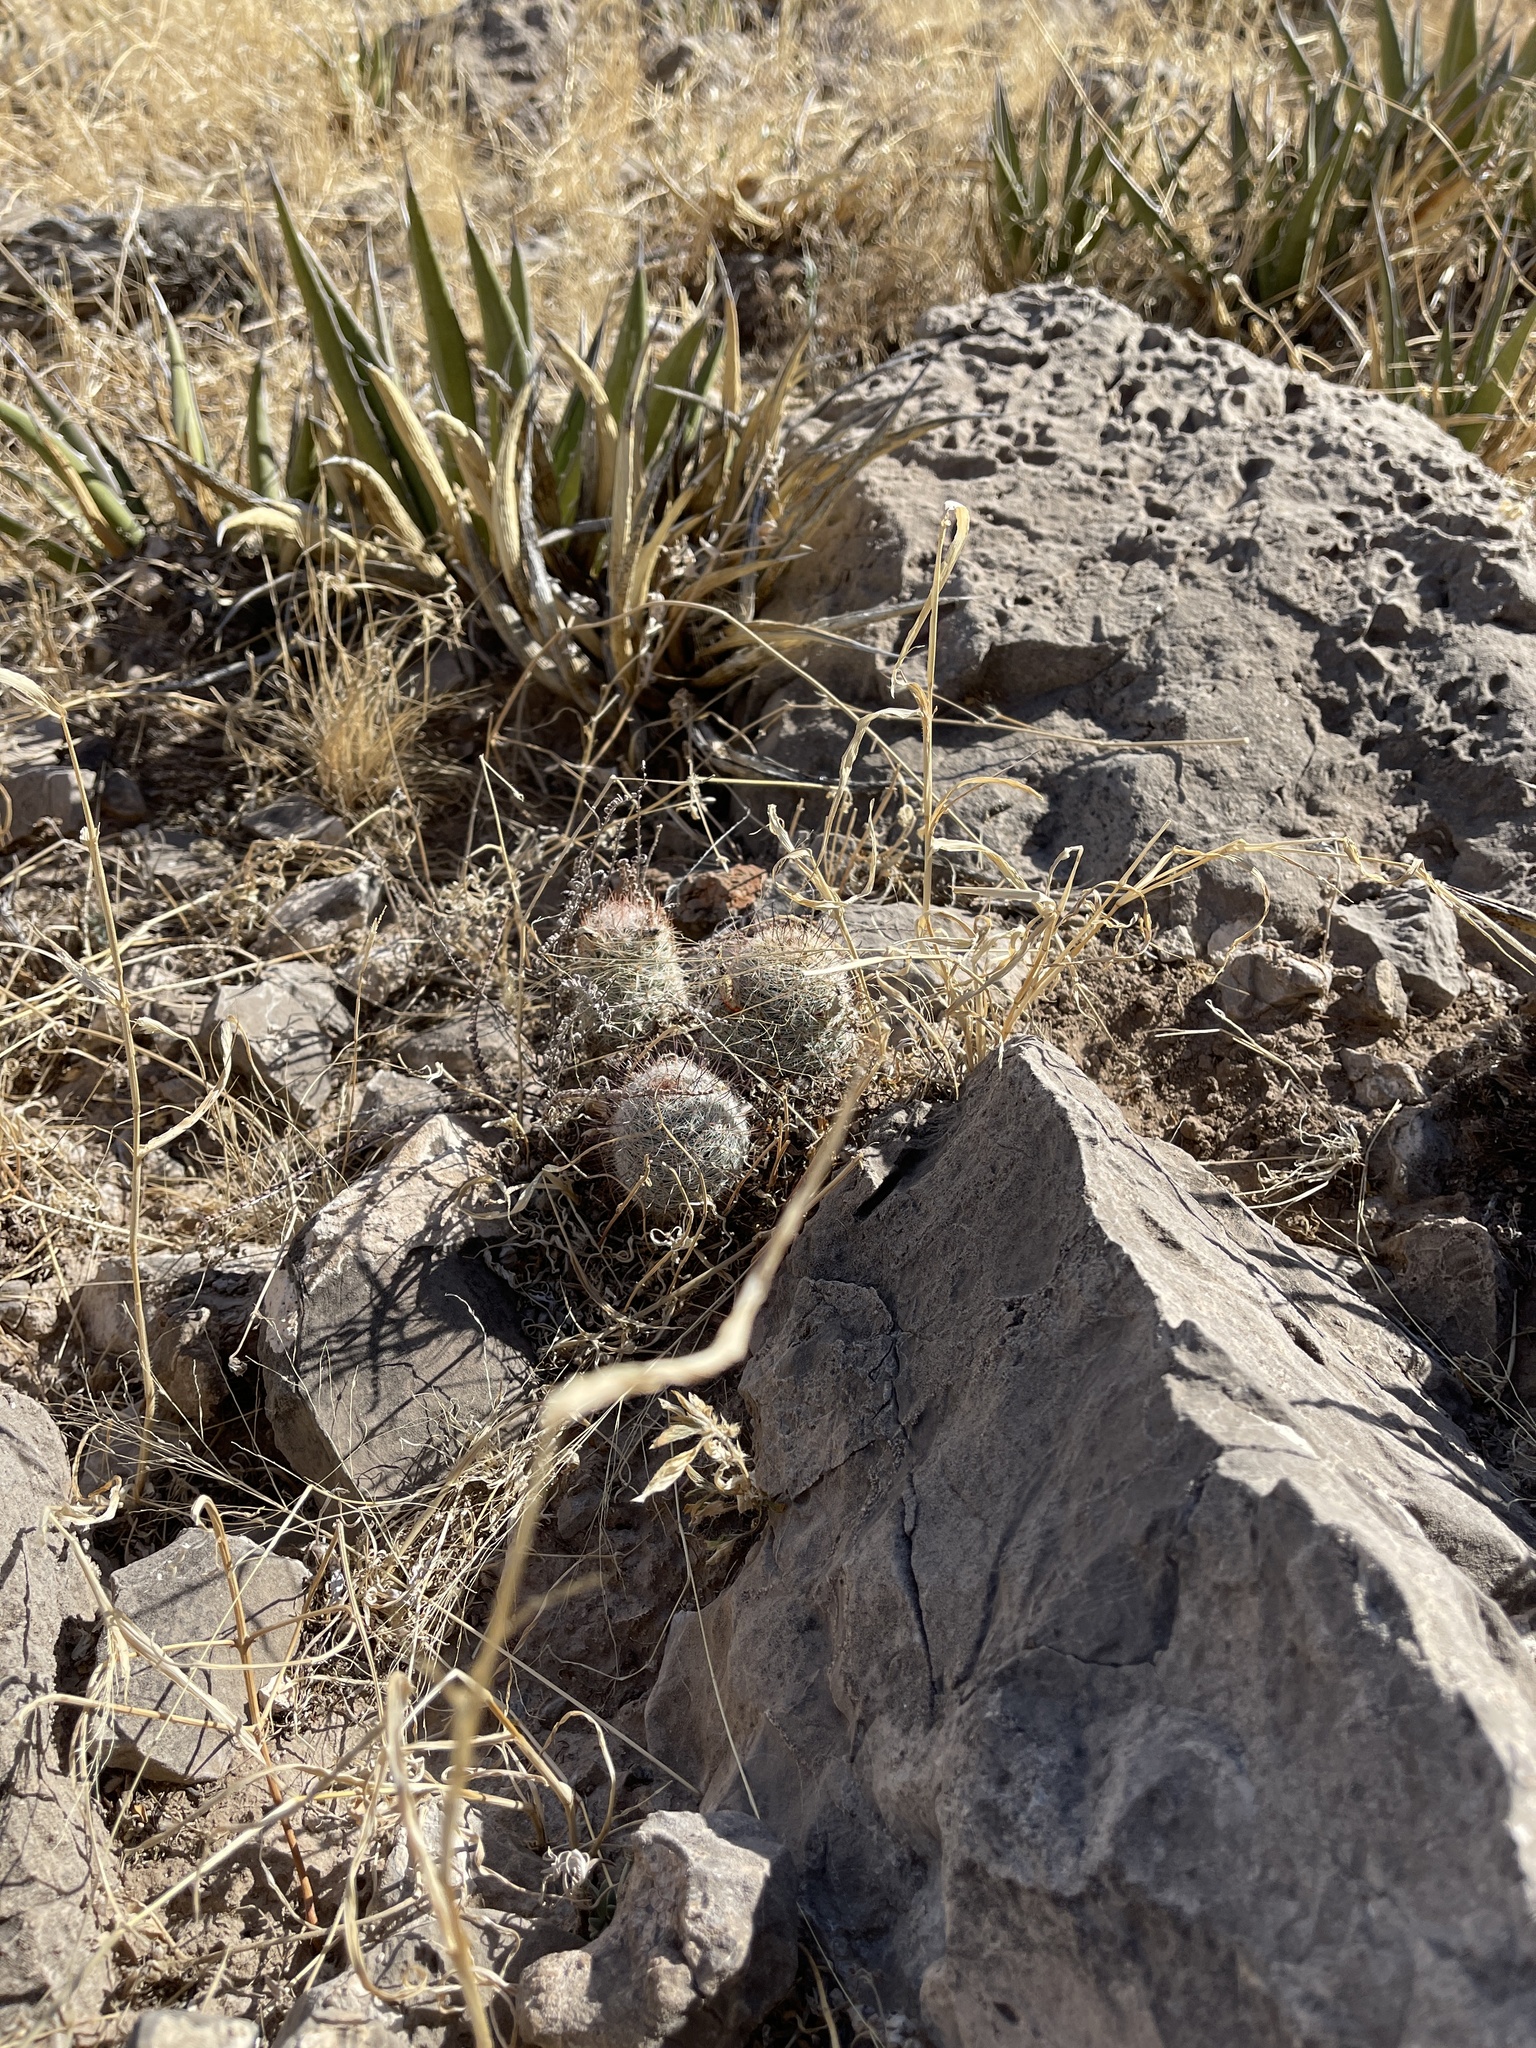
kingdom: Plantae
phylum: Tracheophyta
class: Magnoliopsida
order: Caryophyllales
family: Cactaceae
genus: Pelecyphora
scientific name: Pelecyphora tuberculosa
